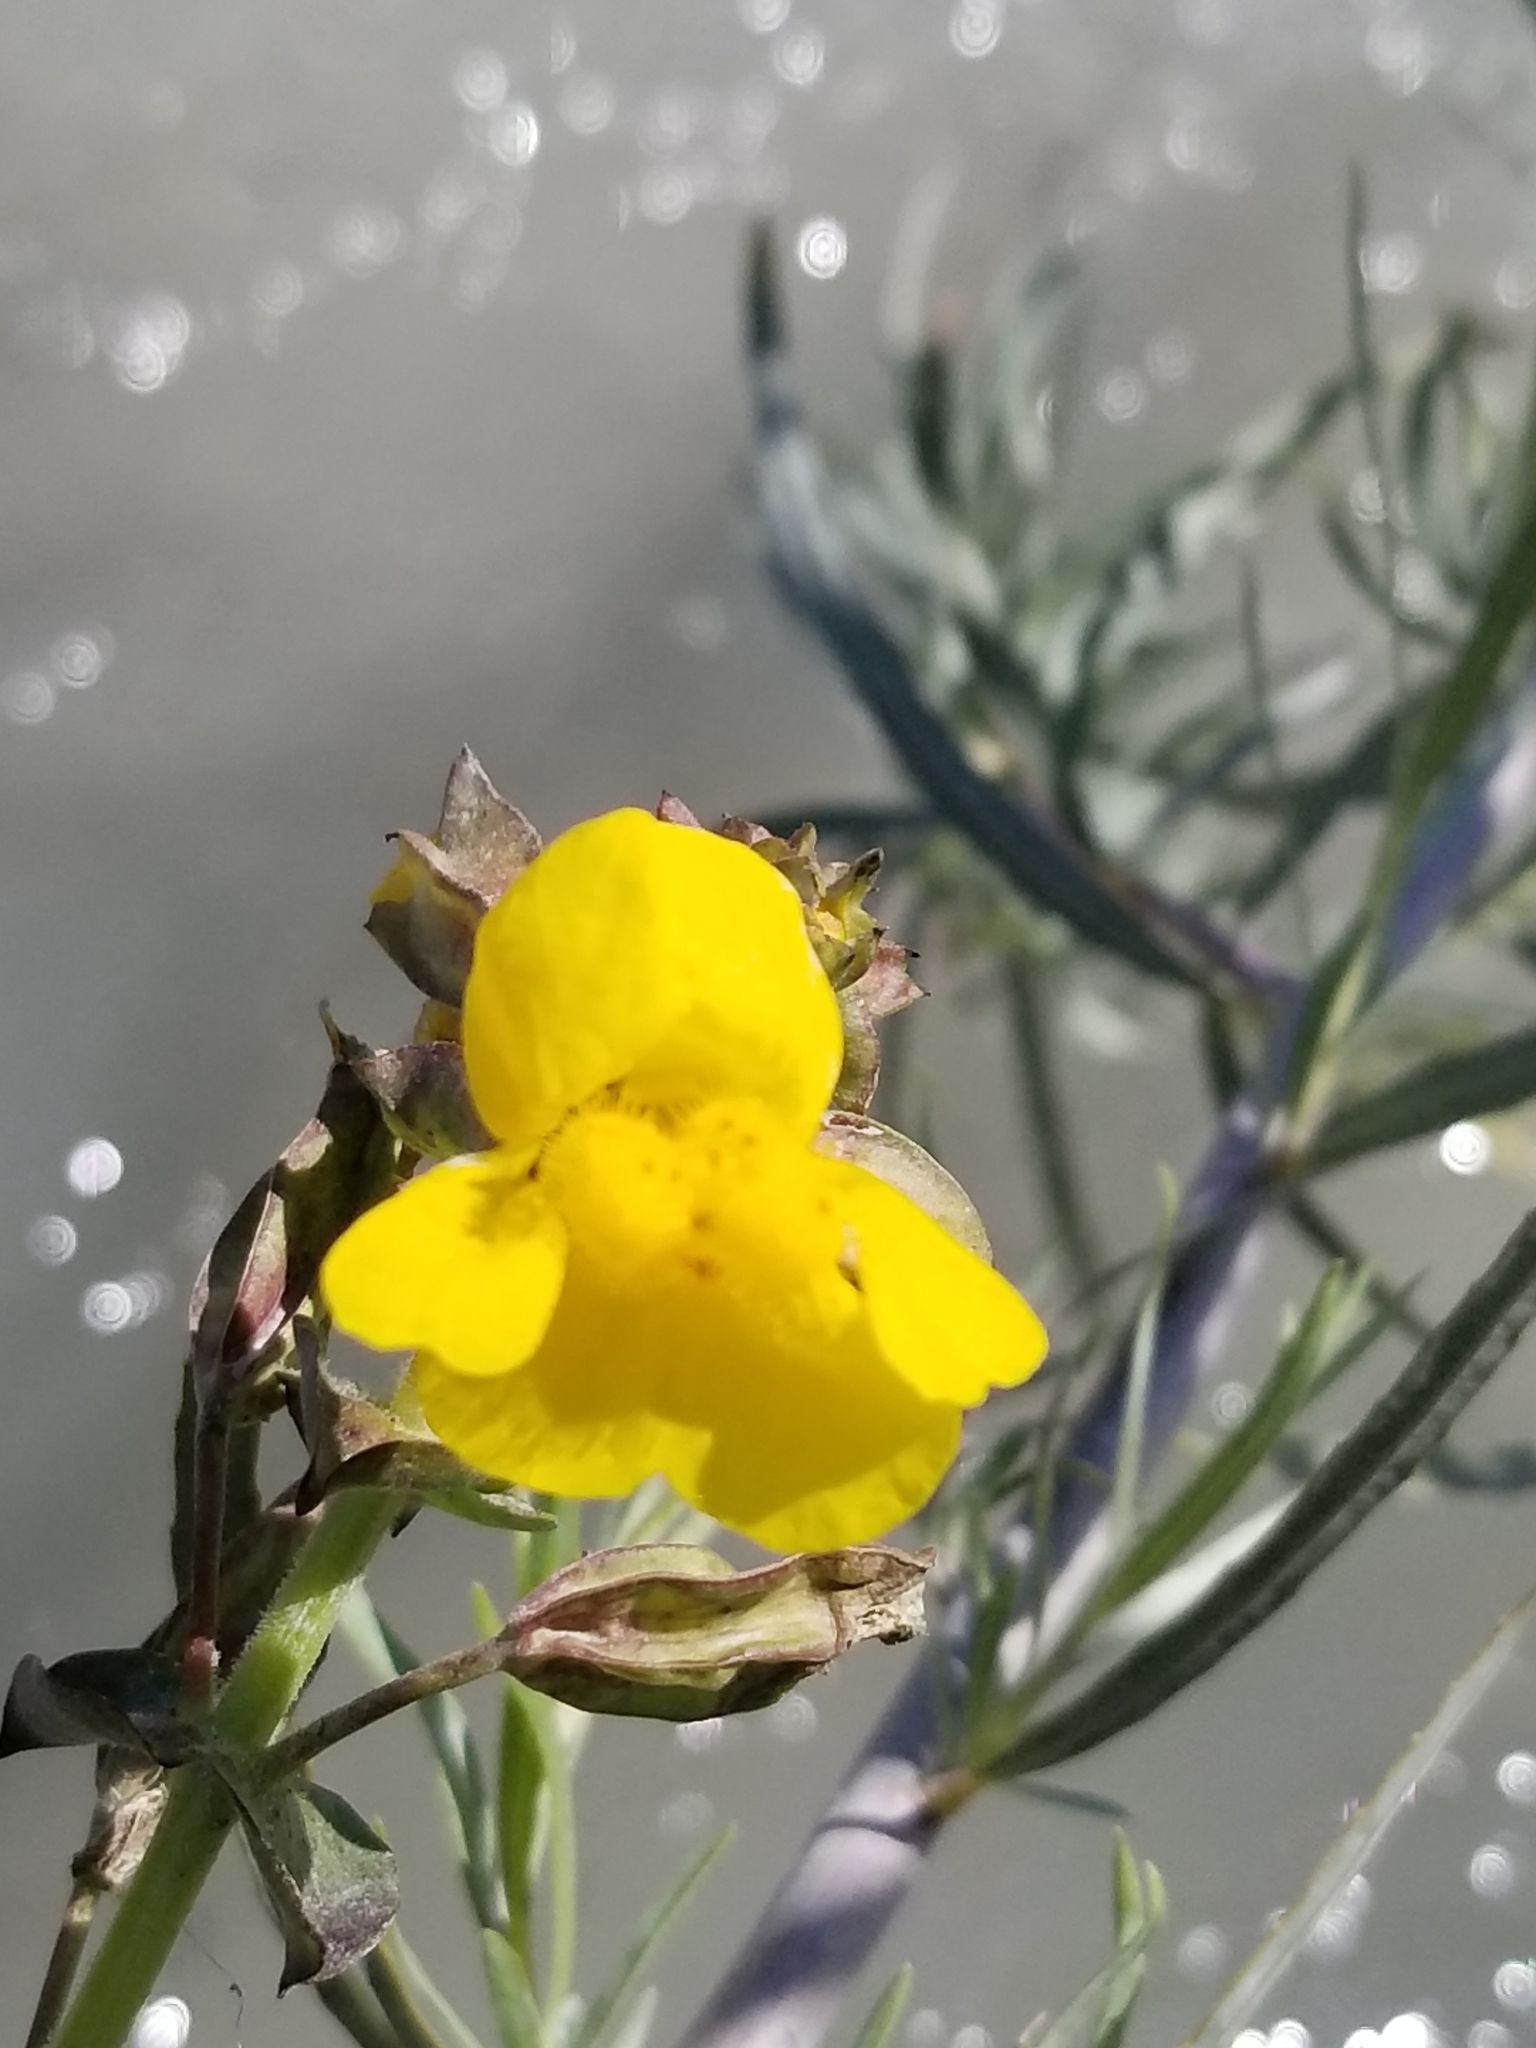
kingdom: Plantae
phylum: Tracheophyta
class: Magnoliopsida
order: Lamiales
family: Phrymaceae
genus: Erythranthe
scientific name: Erythranthe guttata
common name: Monkeyflower
